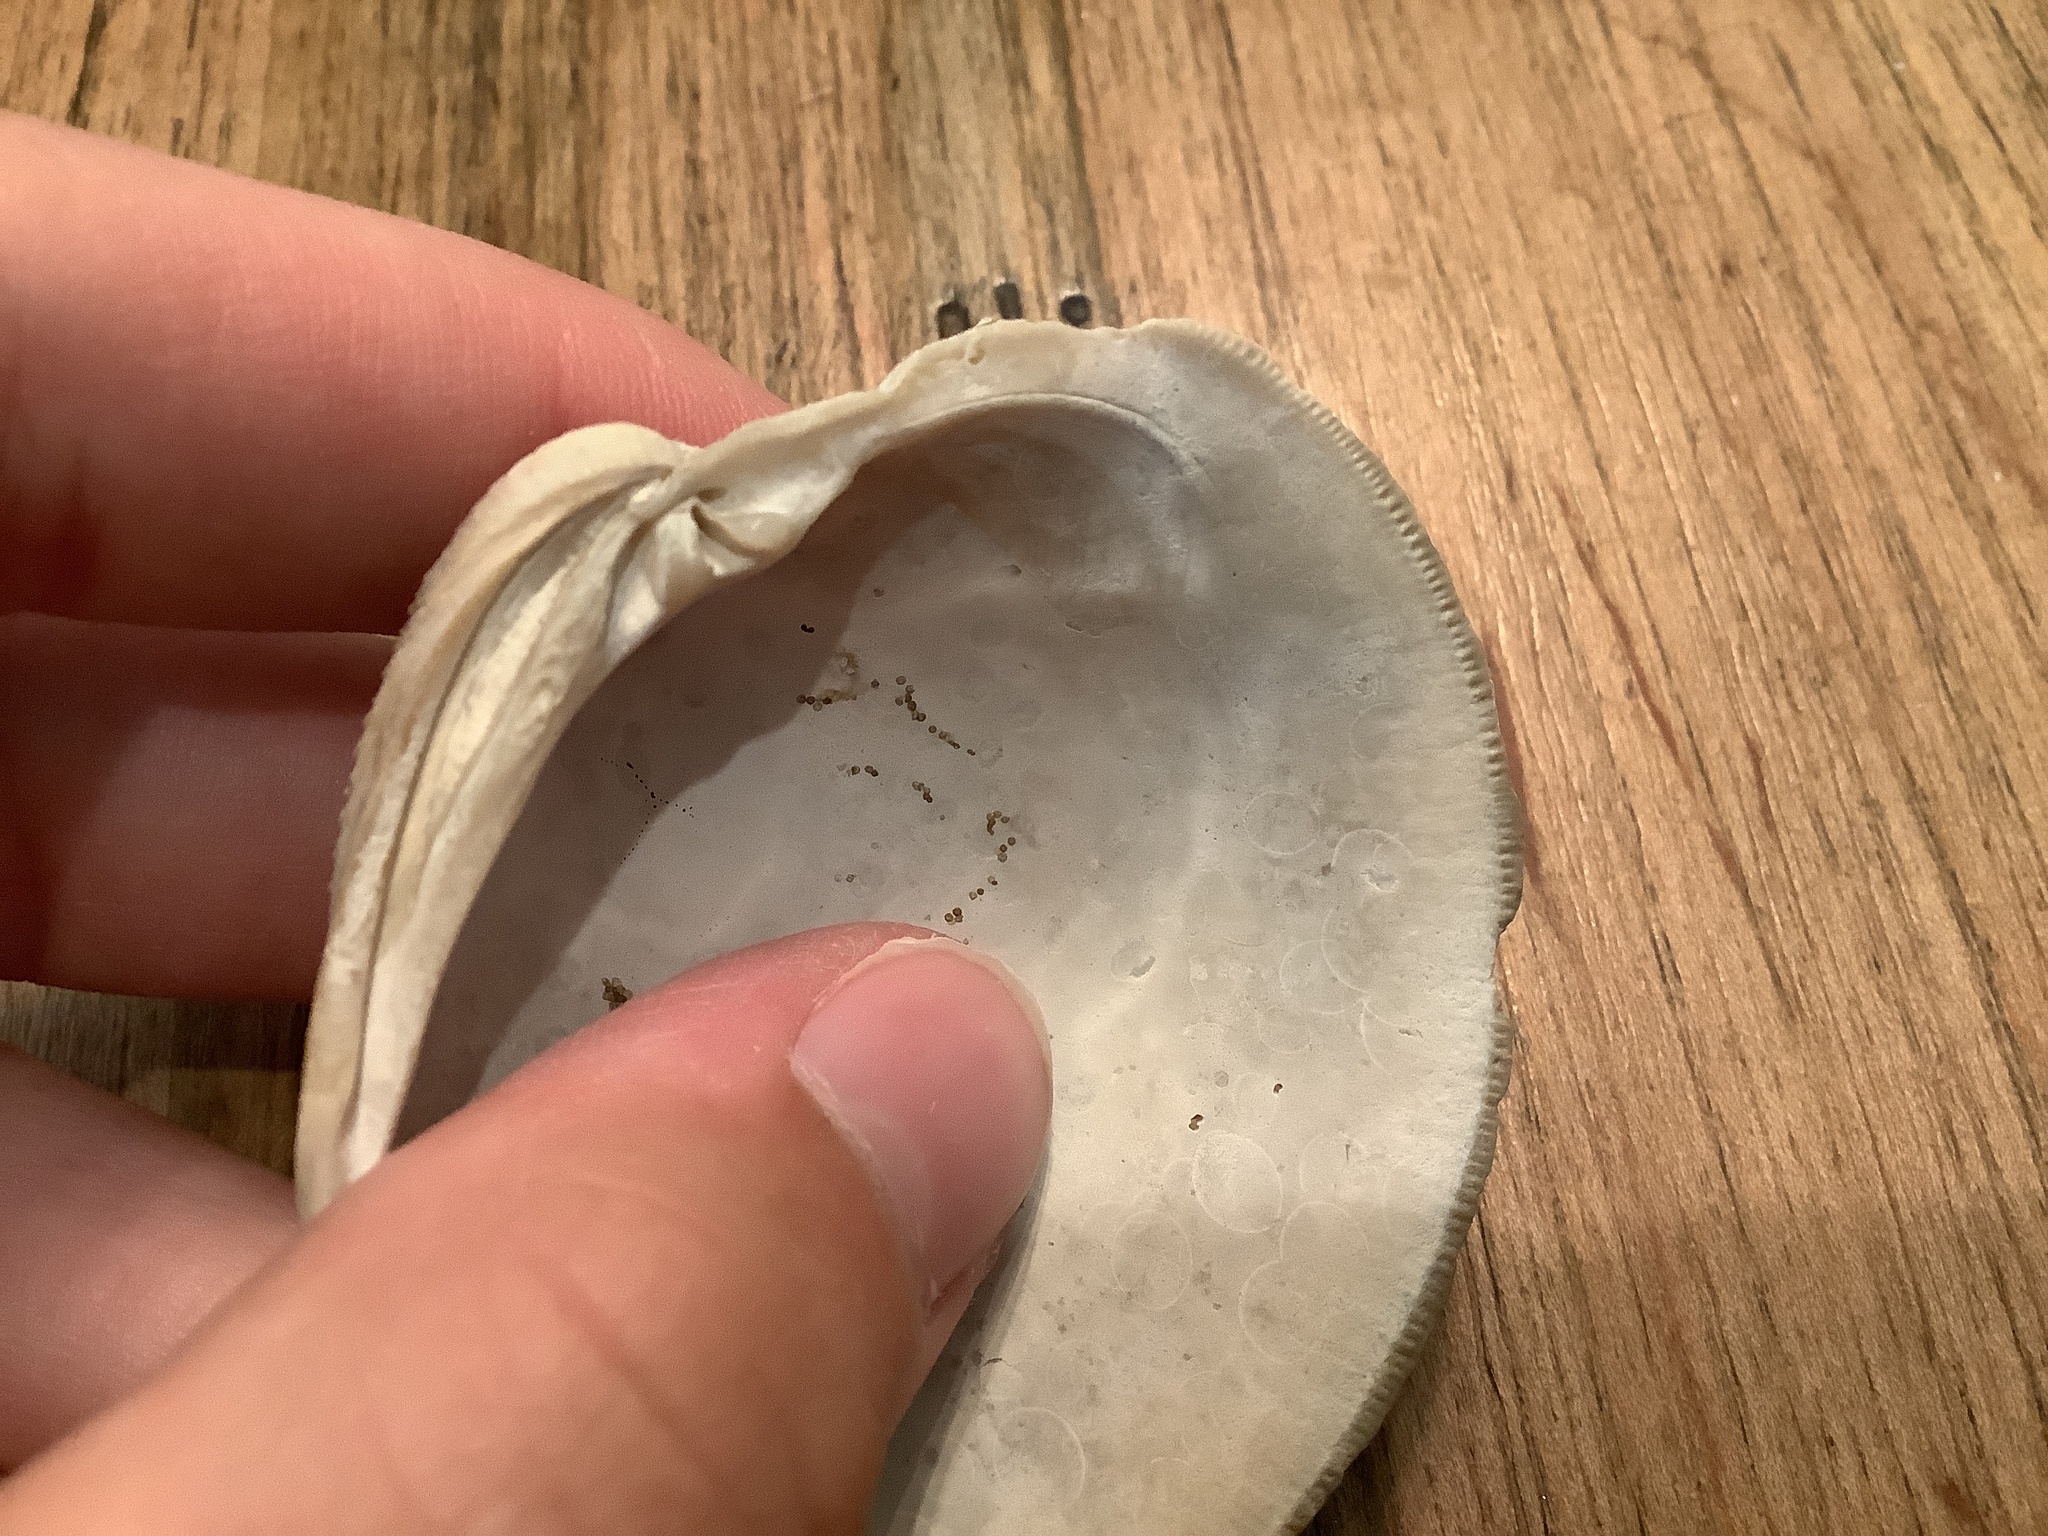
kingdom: Animalia
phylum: Mollusca
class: Bivalvia
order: Venerida
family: Veneridae
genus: Mercenaria
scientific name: Mercenaria campechiensis
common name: Südliche quahog-muschel
